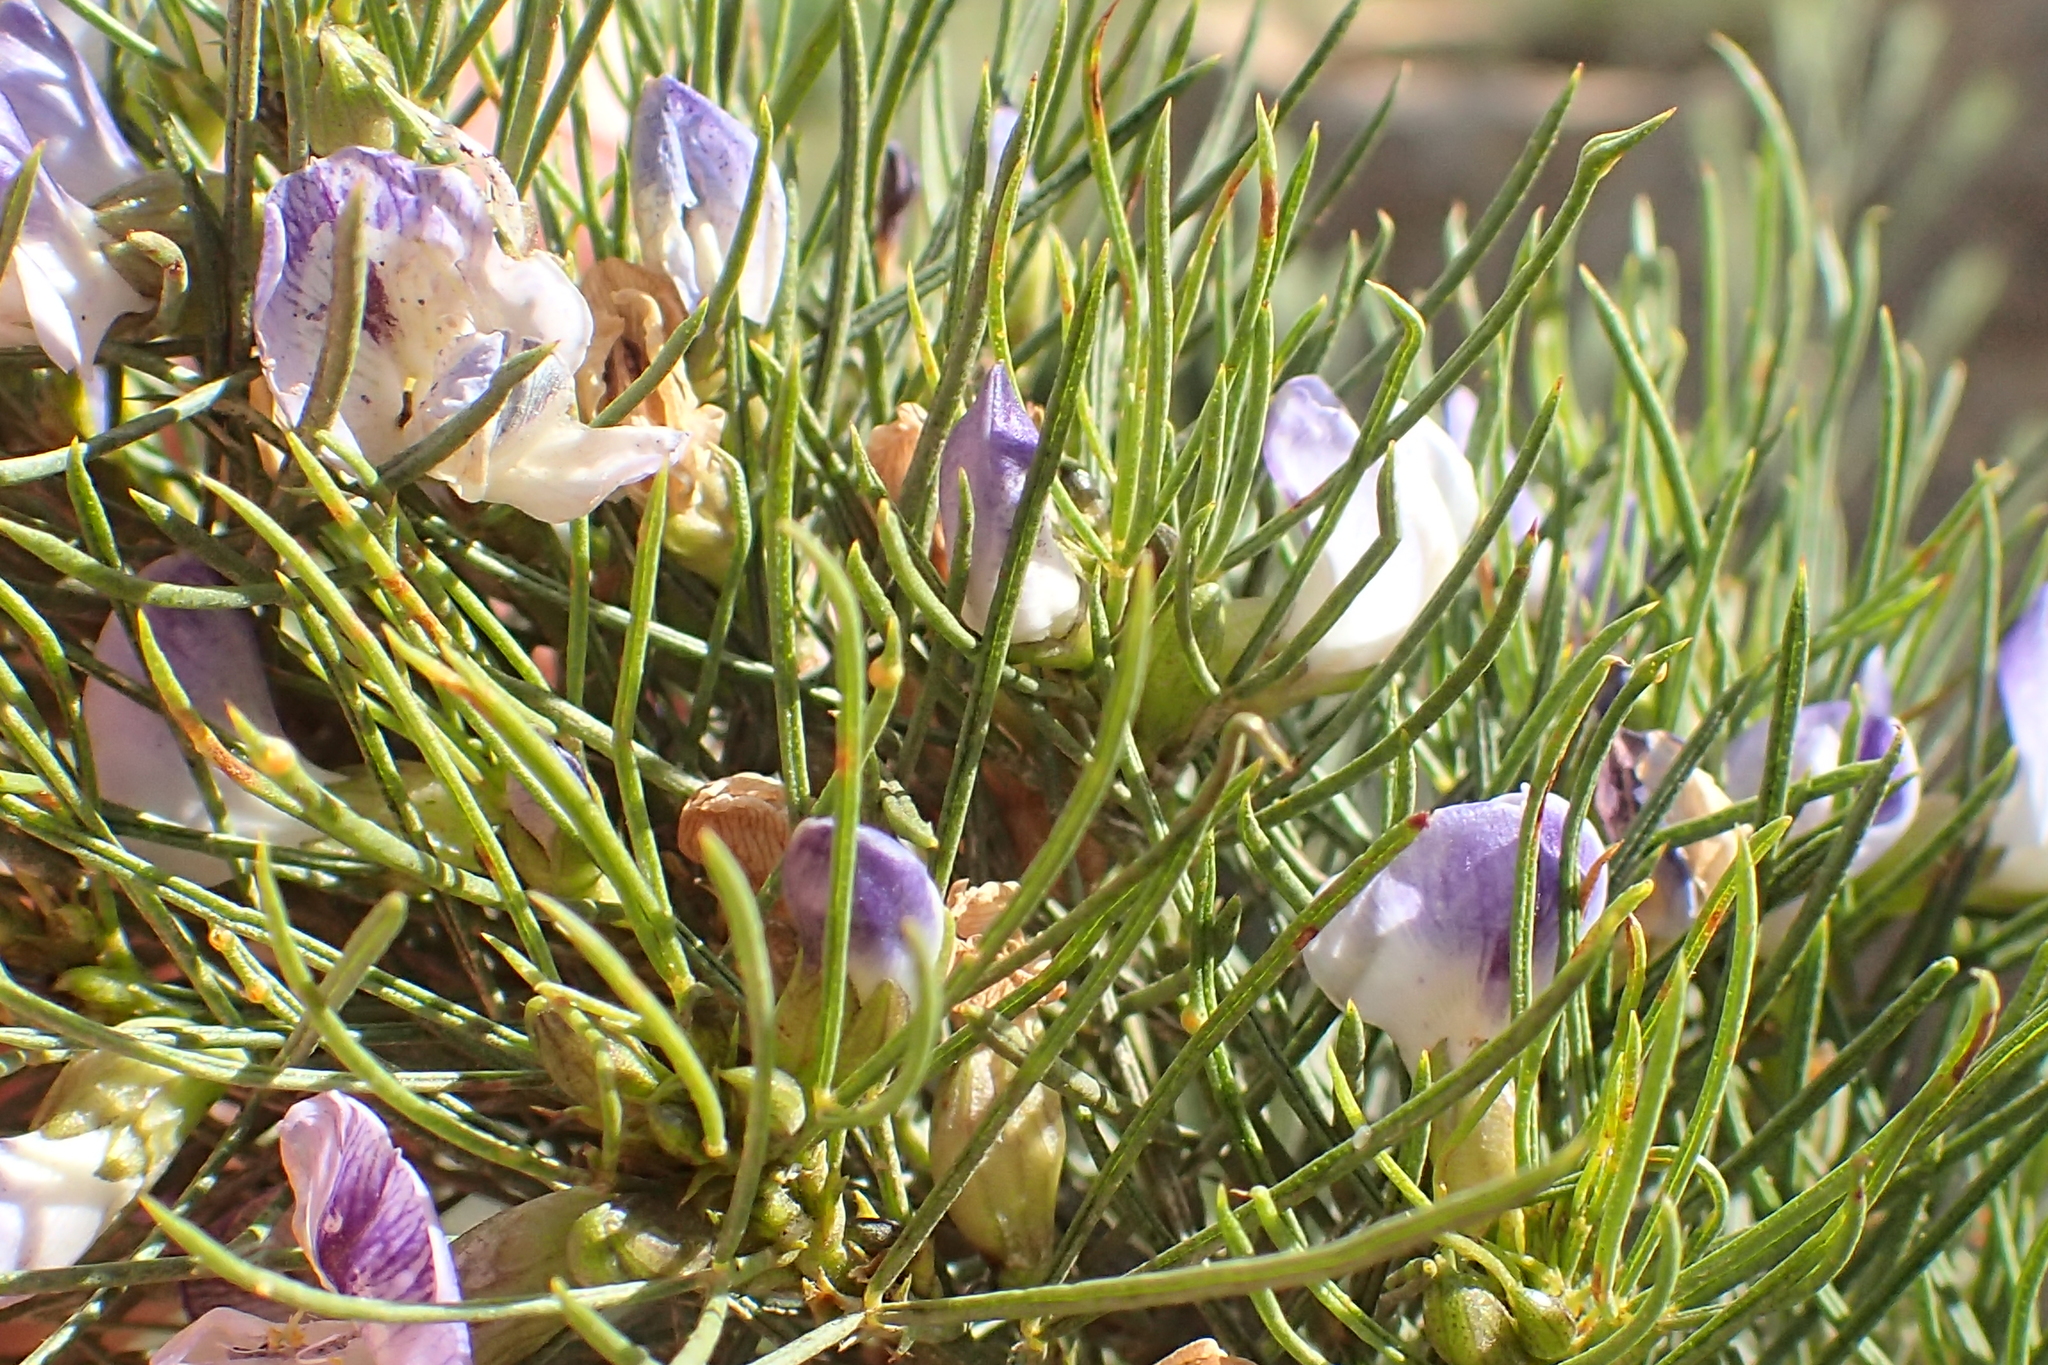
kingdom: Plantae
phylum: Tracheophyta
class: Magnoliopsida
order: Fabales
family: Fabaceae
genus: Psoralea
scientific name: Psoralea
